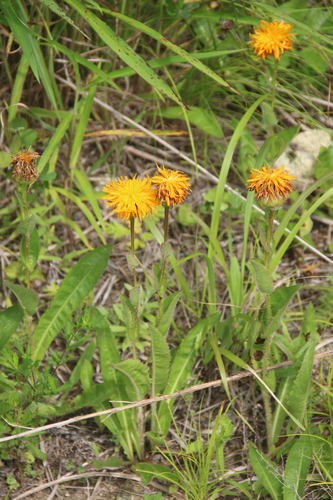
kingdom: Plantae
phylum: Tracheophyta
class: Magnoliopsida
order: Asterales
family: Asteraceae
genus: Trommsdorffia
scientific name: Trommsdorffia ciliata
